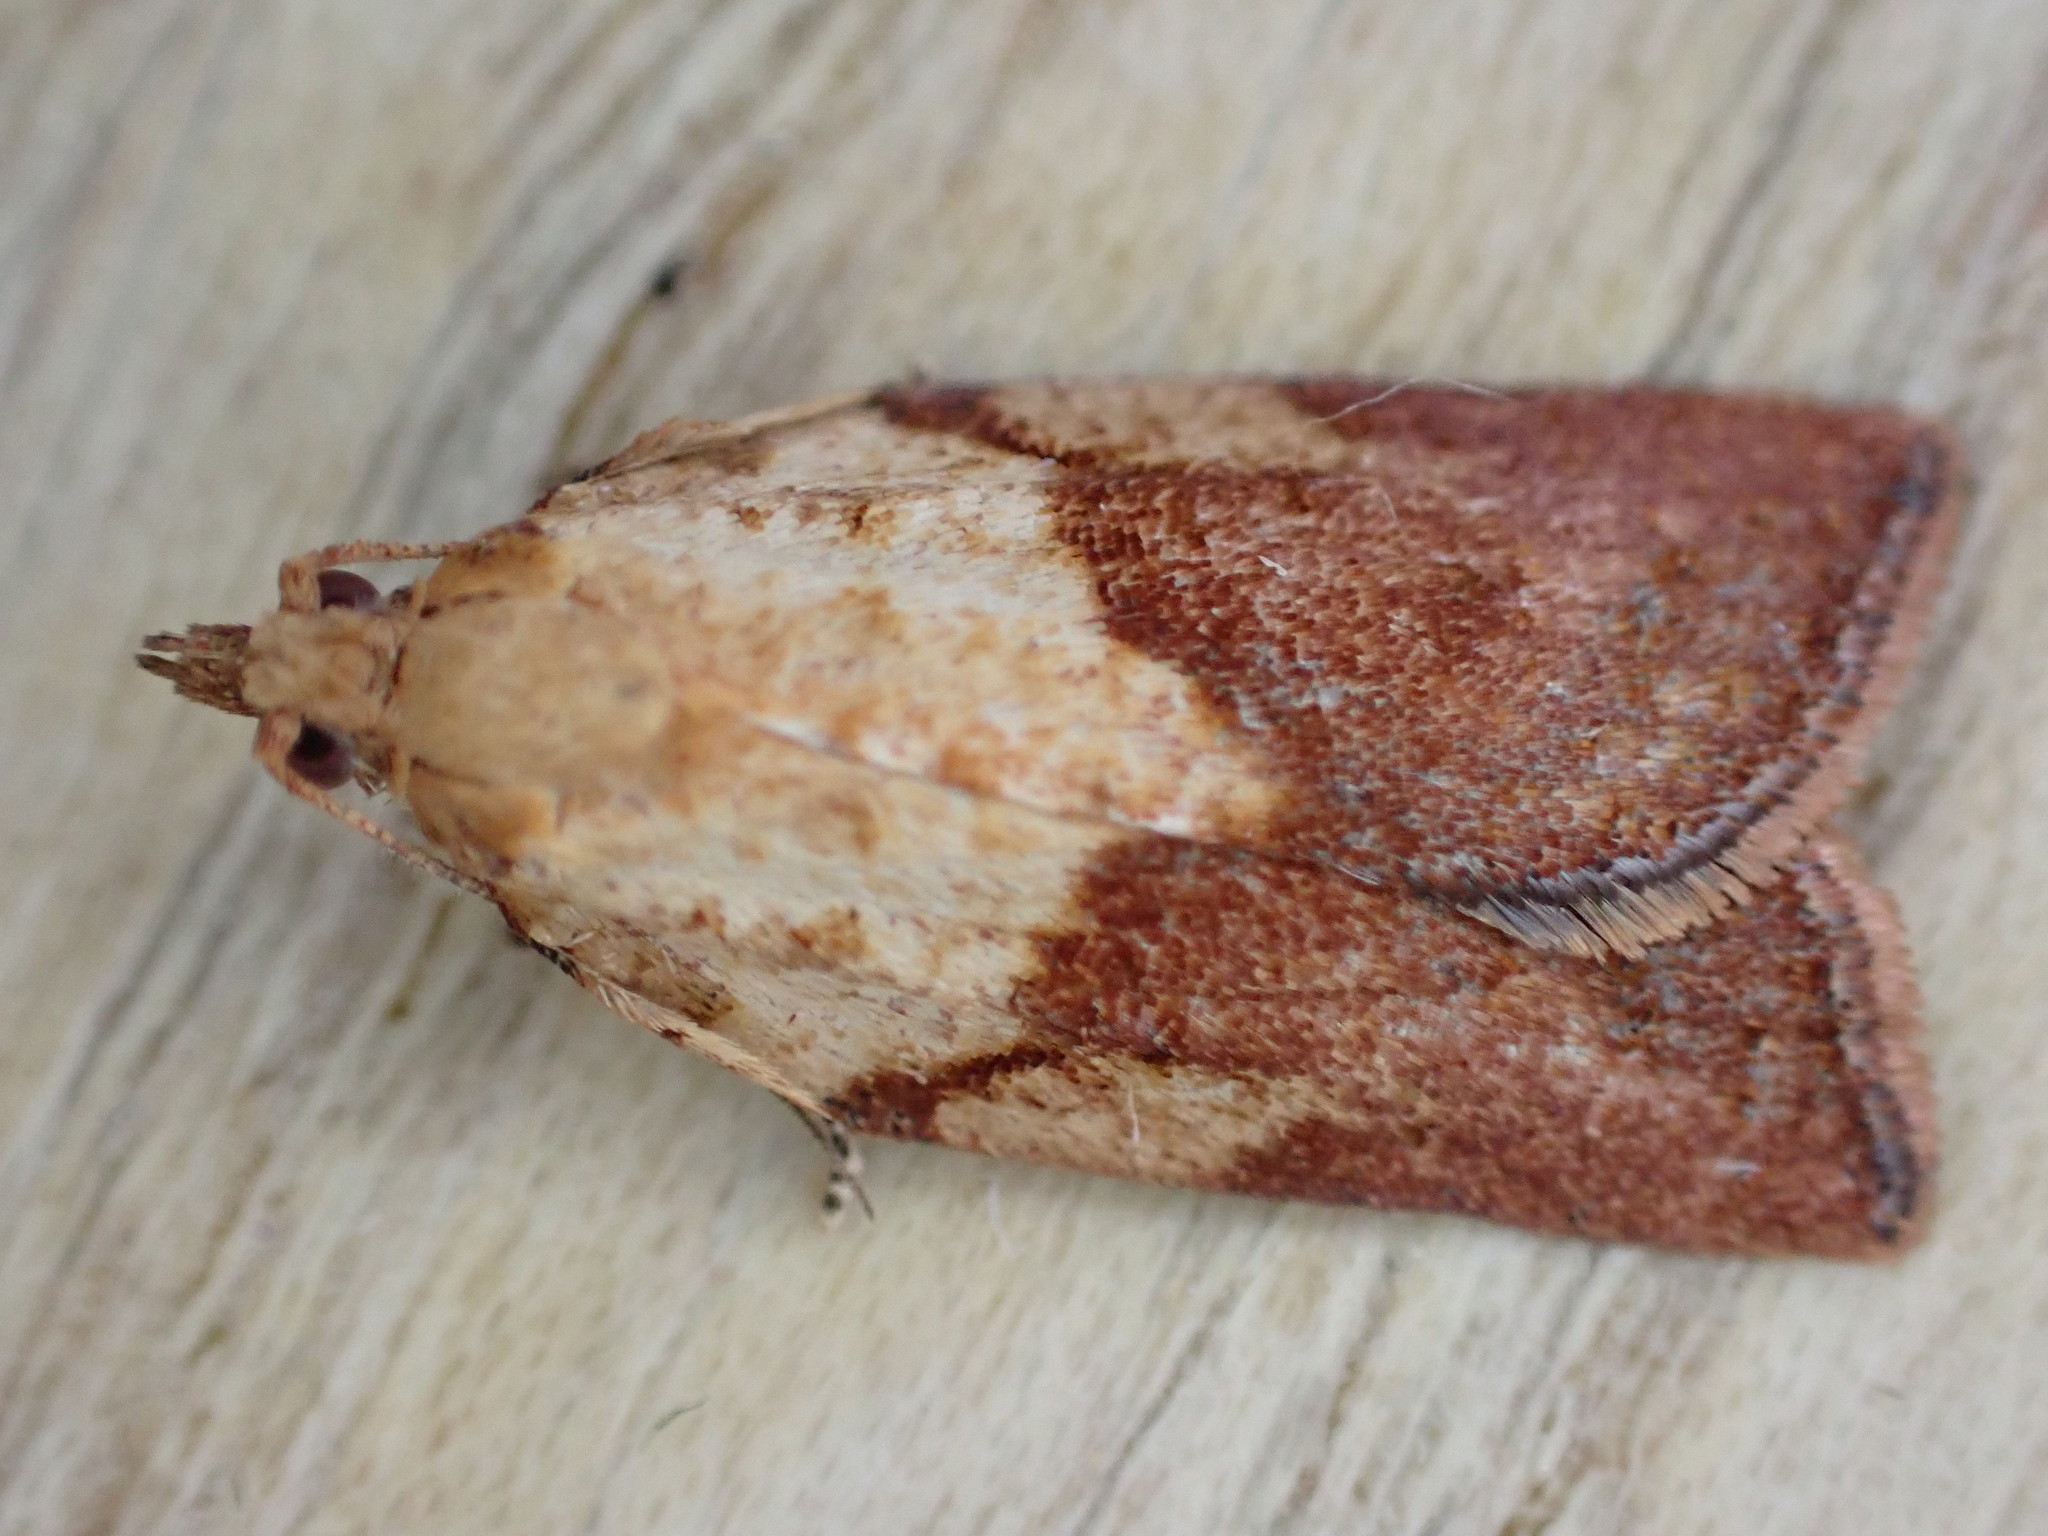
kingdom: Animalia
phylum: Arthropoda
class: Insecta
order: Lepidoptera
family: Tortricidae
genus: Epiphyas
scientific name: Epiphyas postvittana
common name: Light brown apple moth
